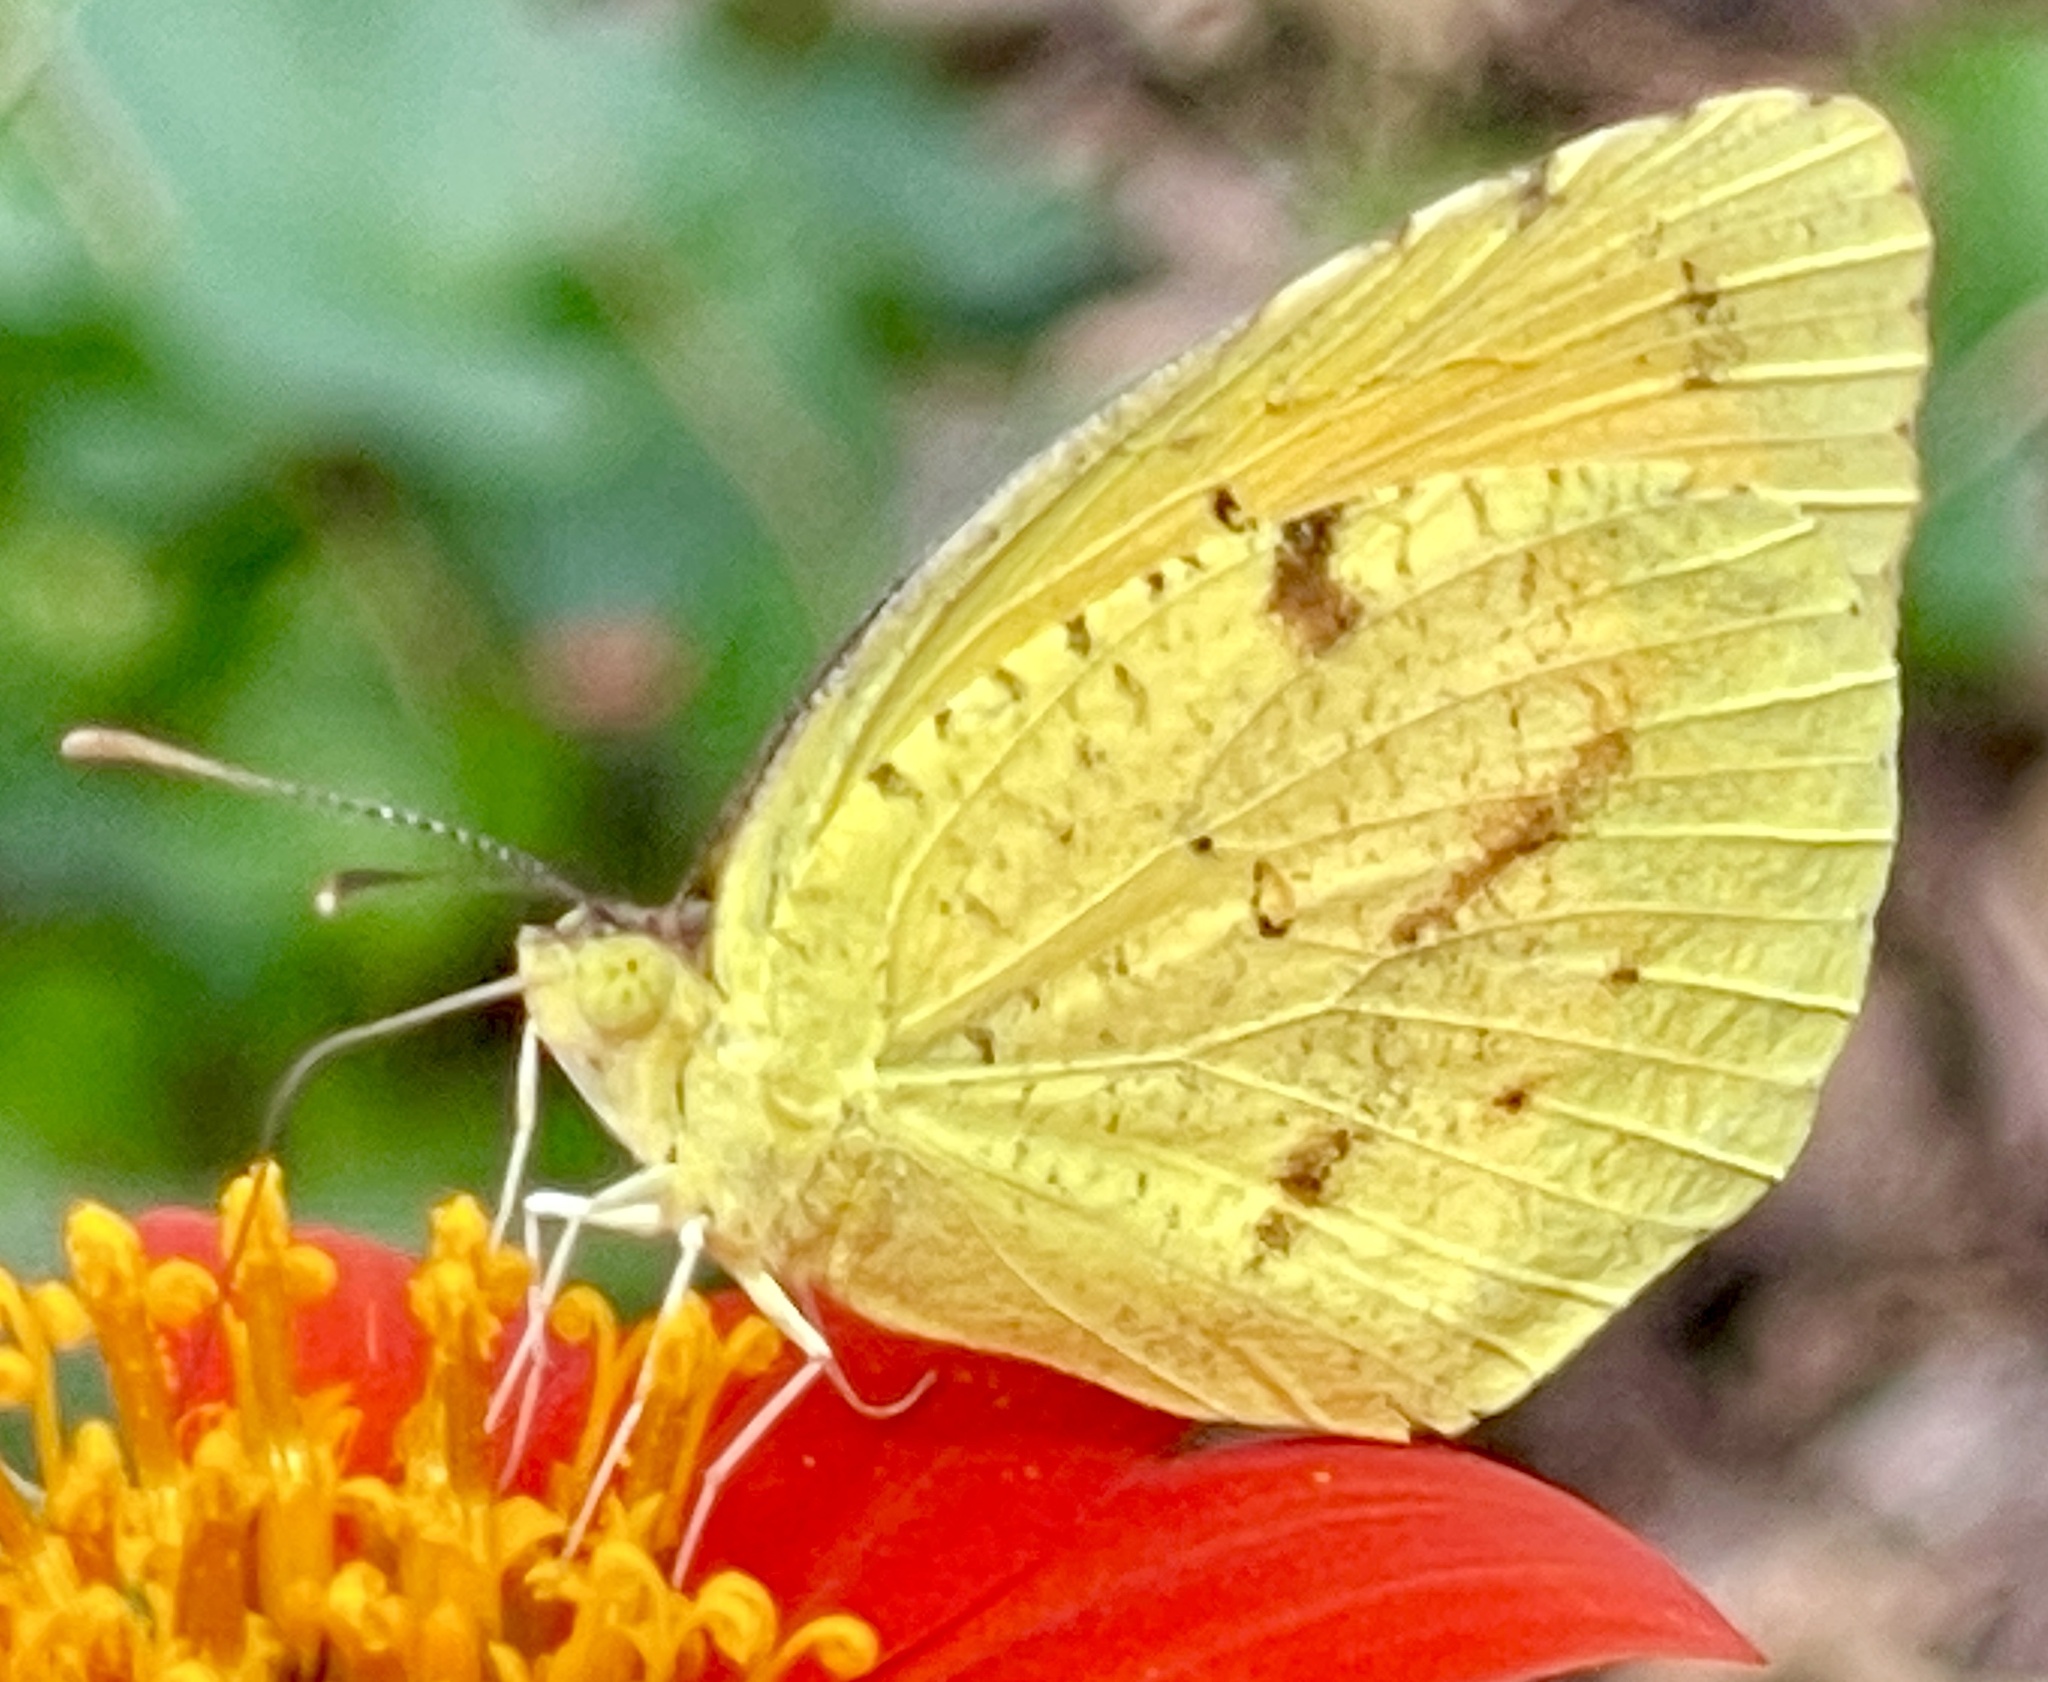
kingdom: Animalia
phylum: Arthropoda
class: Insecta
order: Lepidoptera
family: Pieridae
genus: Abaeis
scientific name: Abaeis nicippe
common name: Sleepy orange
